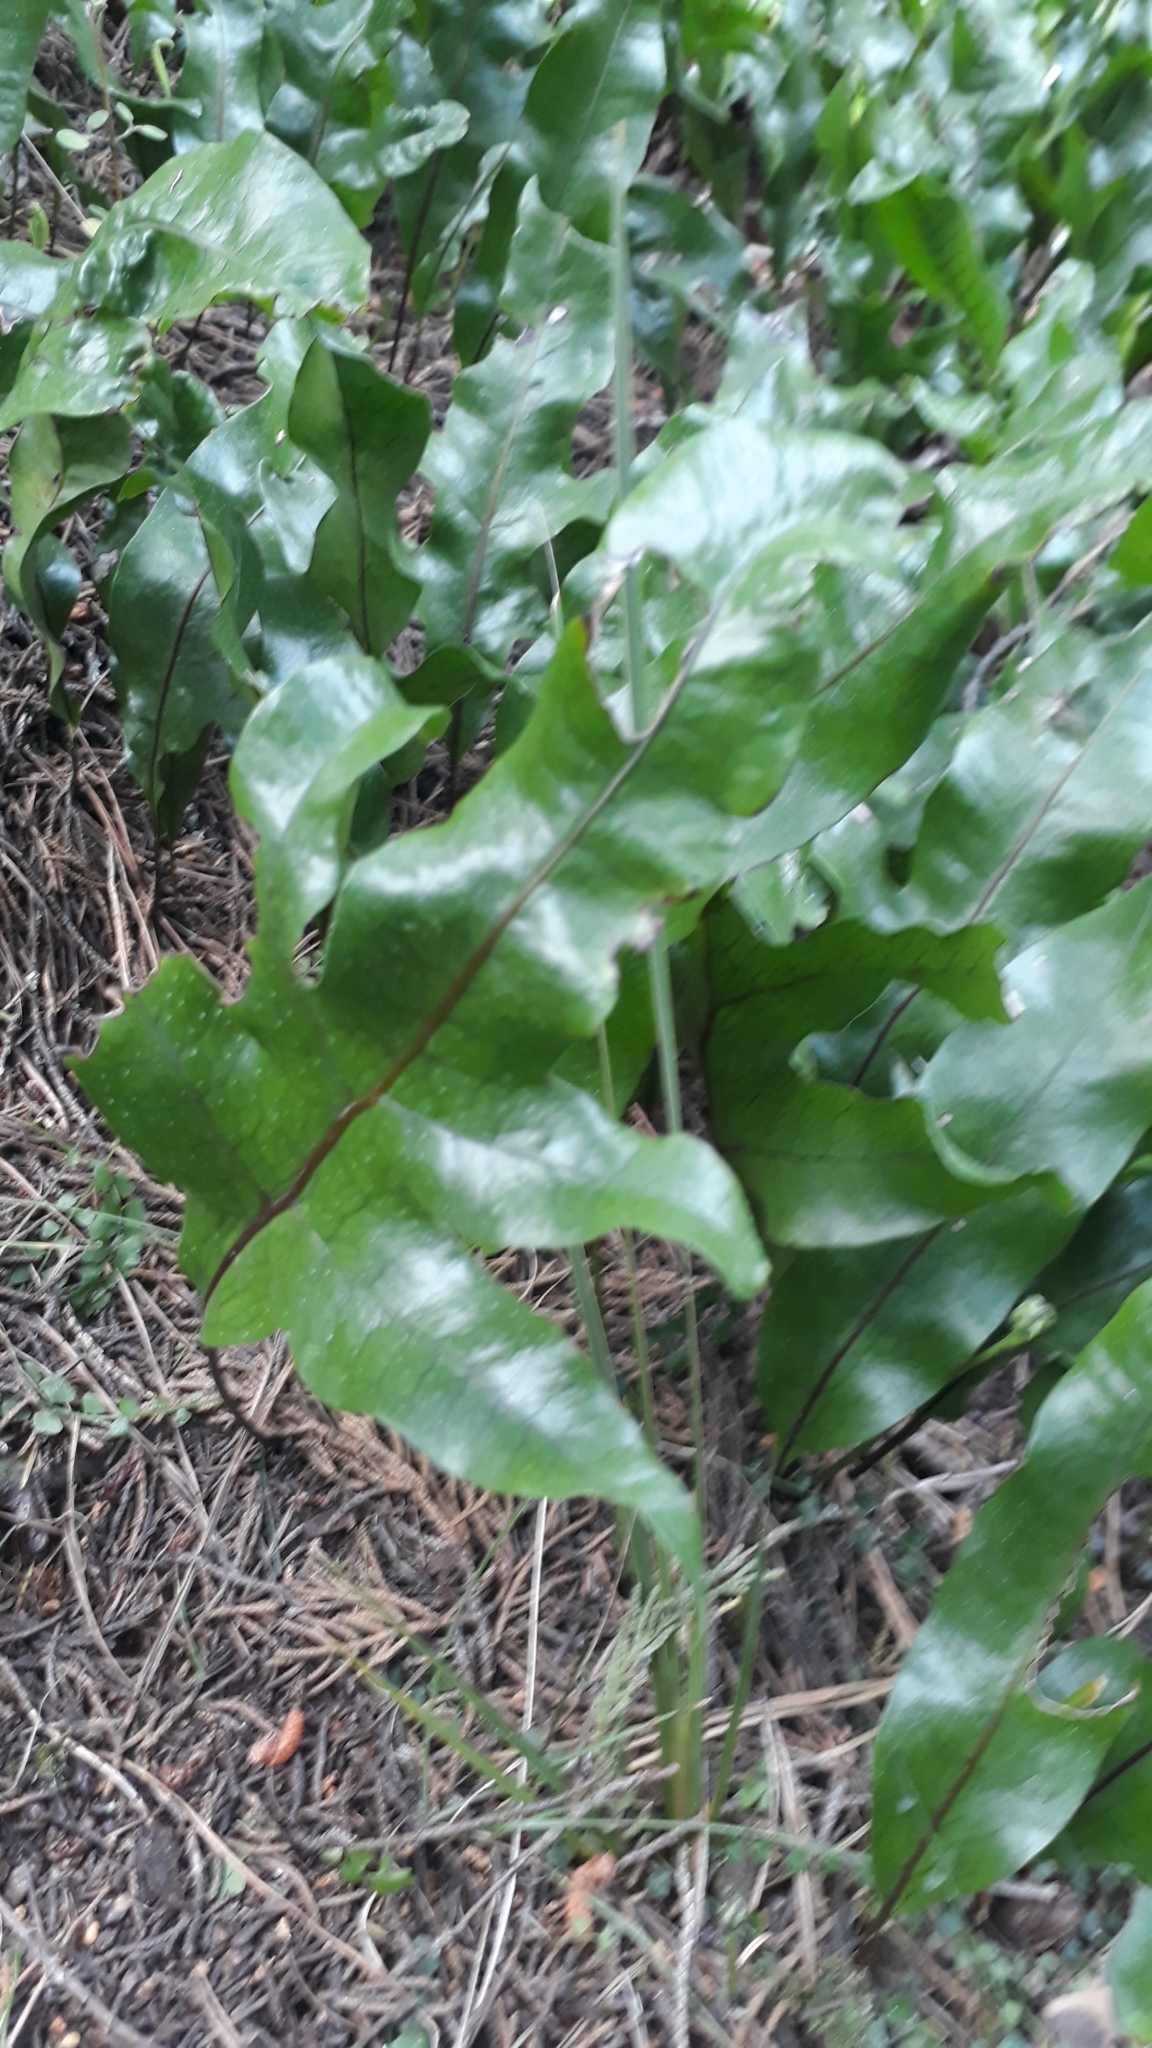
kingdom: Plantae
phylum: Tracheophyta
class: Polypodiopsida
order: Polypodiales
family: Polypodiaceae
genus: Lecanopteris
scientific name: Lecanopteris pustulata
